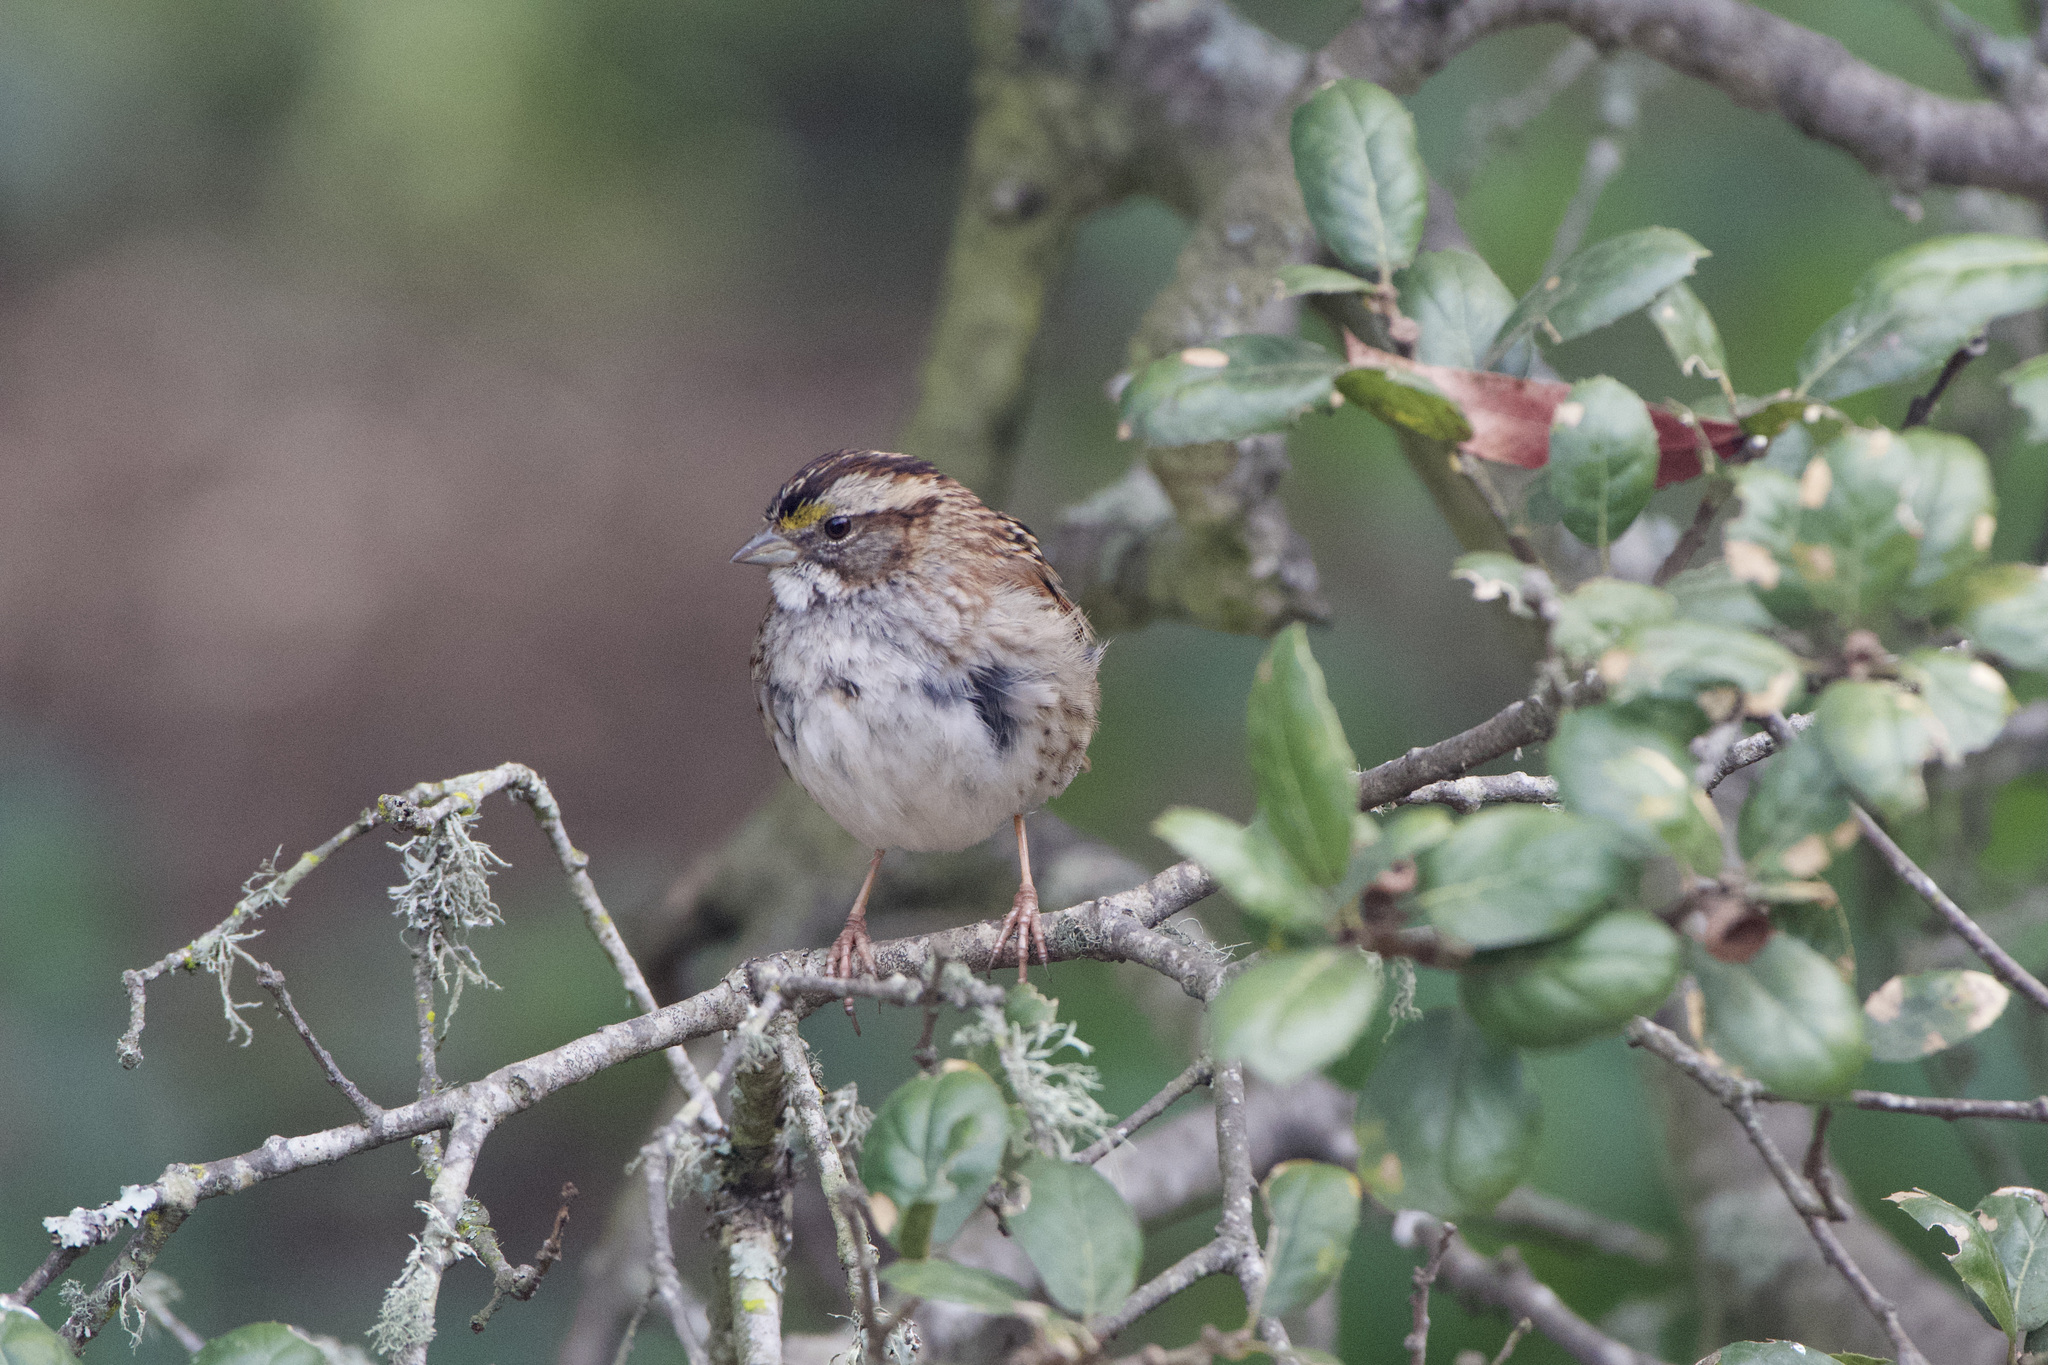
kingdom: Animalia
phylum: Chordata
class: Aves
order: Passeriformes
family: Passerellidae
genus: Zonotrichia
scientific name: Zonotrichia albicollis
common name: White-throated sparrow
